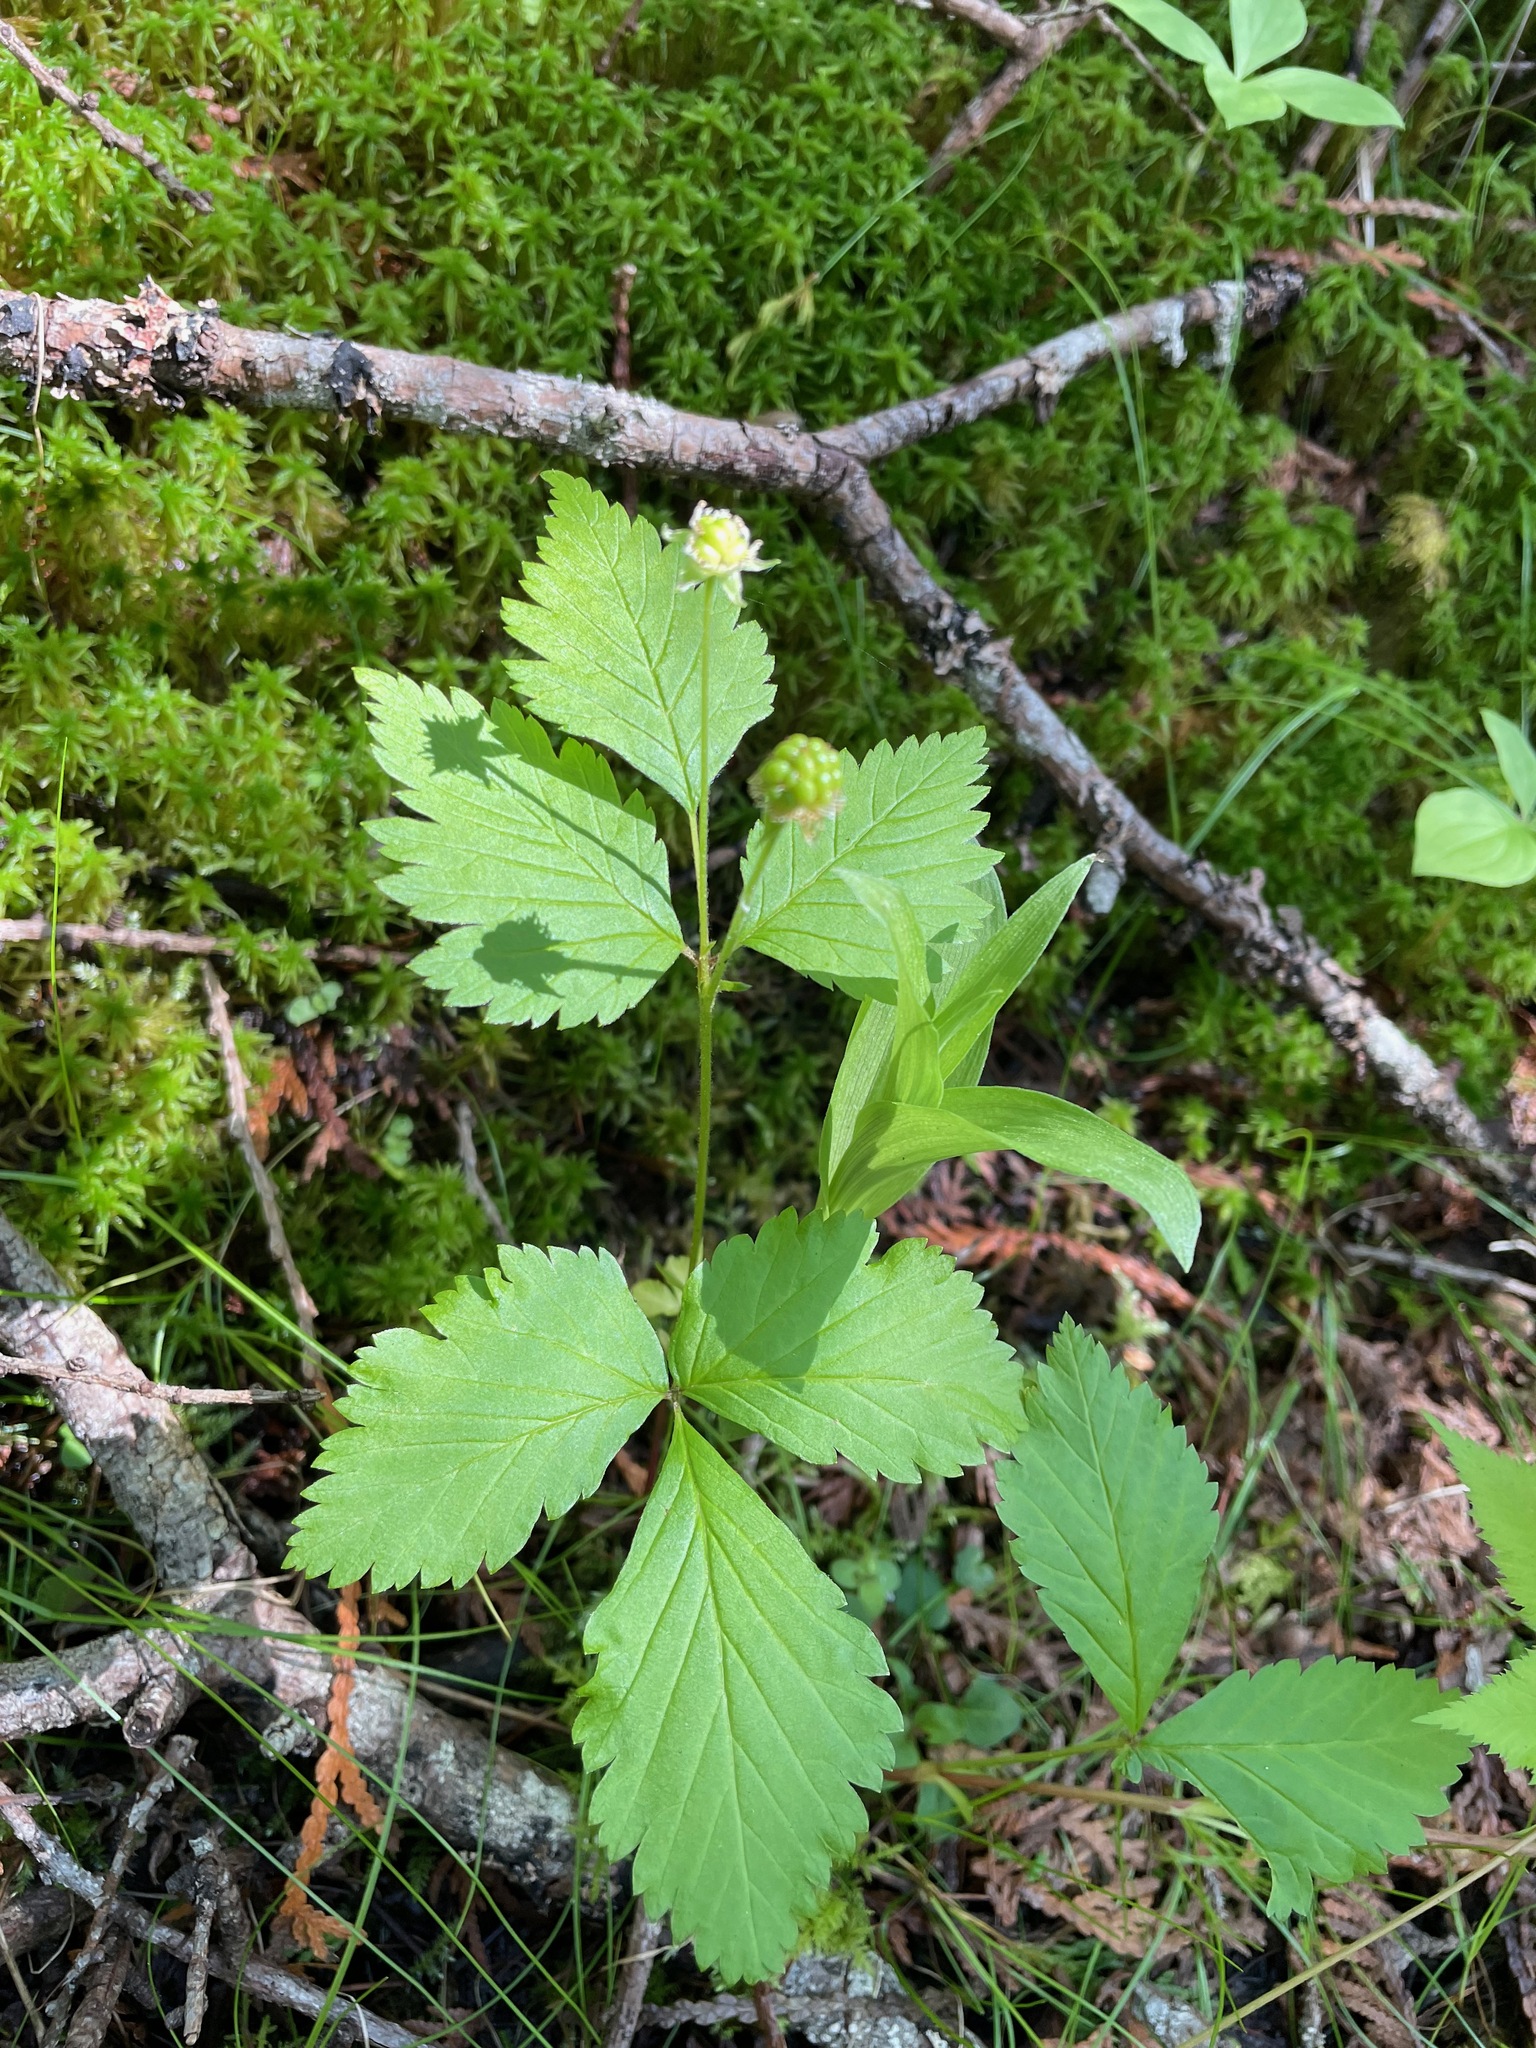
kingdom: Plantae
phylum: Tracheophyta
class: Magnoliopsida
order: Rosales
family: Rosaceae
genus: Rubus
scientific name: Rubus pubescens
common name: Dwarf raspberry
